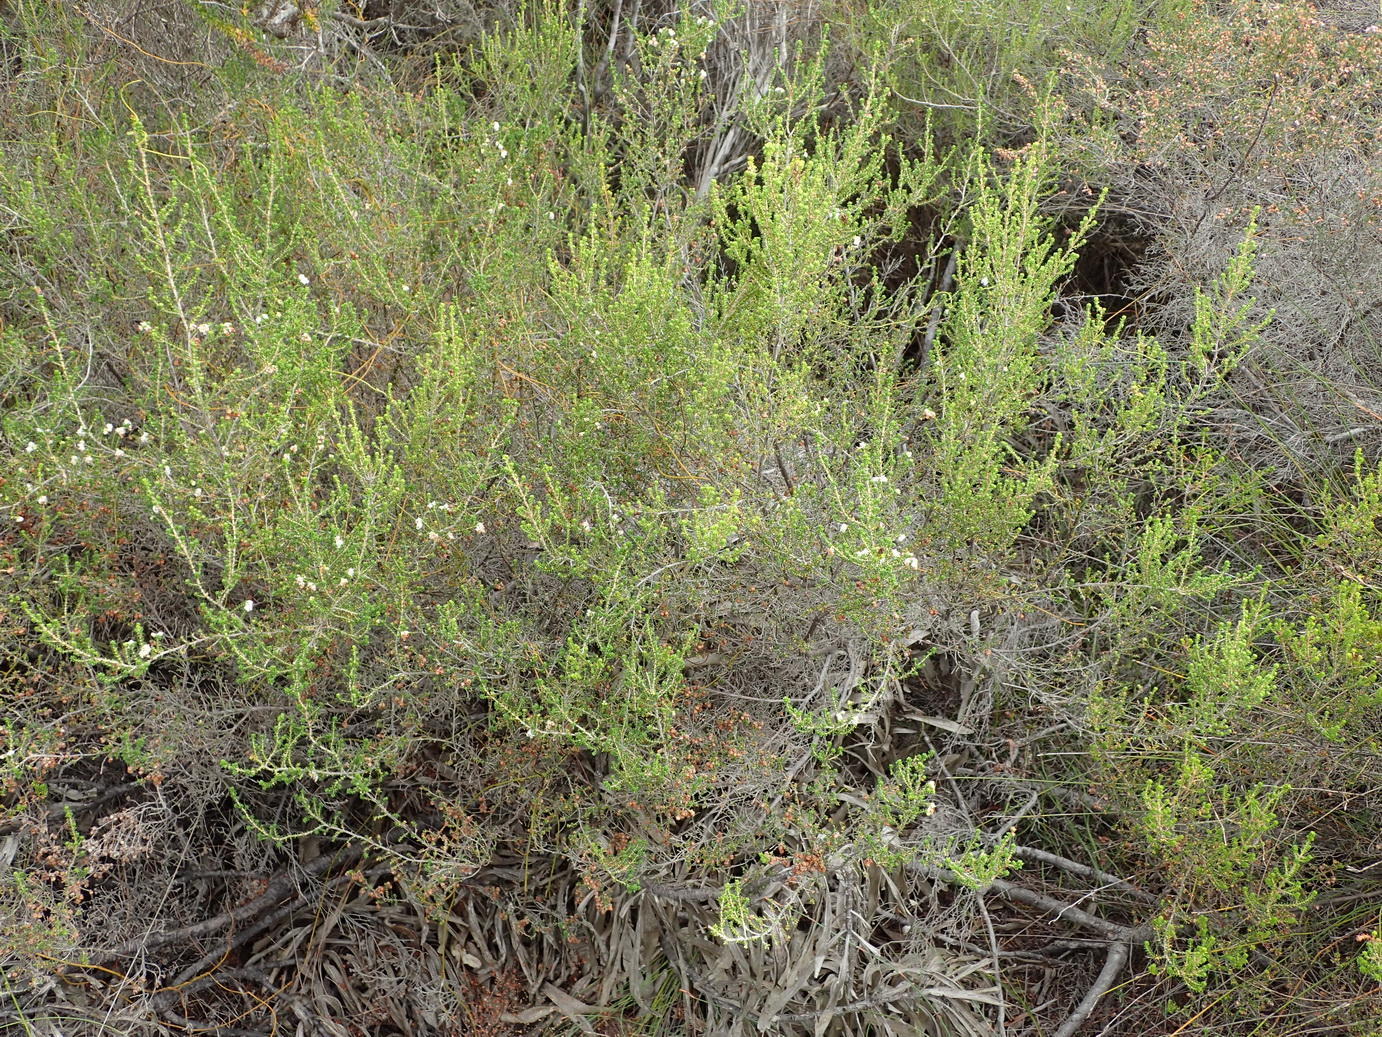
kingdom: Plantae
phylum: Tracheophyta
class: Magnoliopsida
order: Ericales
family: Ericaceae
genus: Erica
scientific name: Erica formosa
